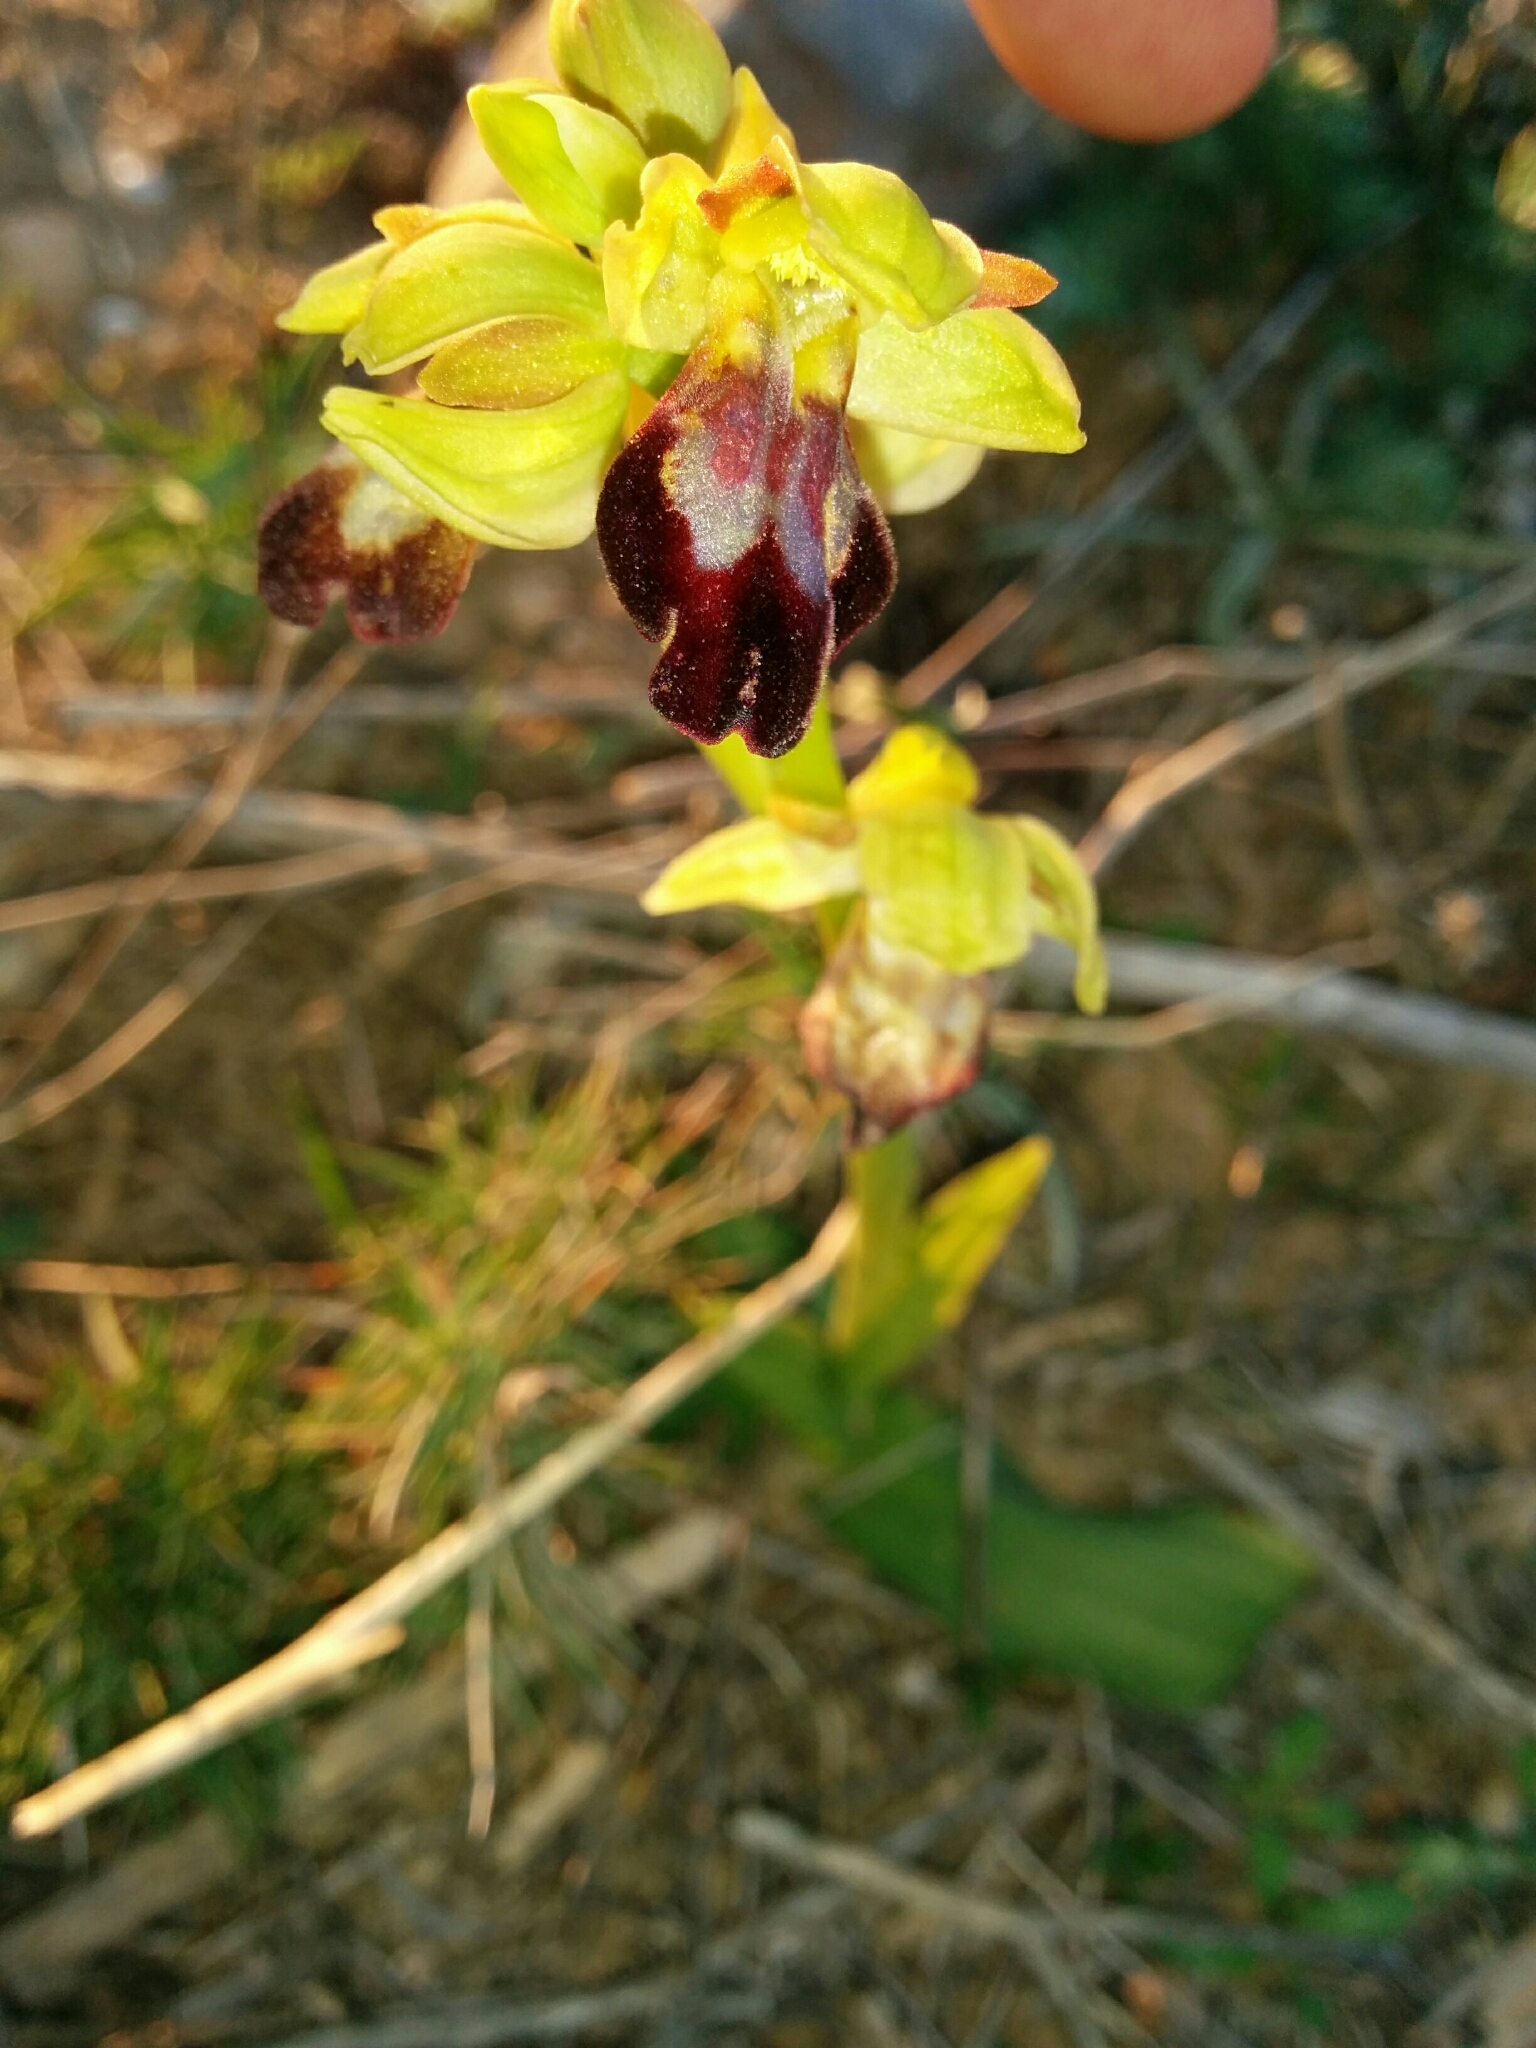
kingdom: Plantae
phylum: Tracheophyta
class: Liliopsida
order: Asparagales
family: Orchidaceae
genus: Ophrys
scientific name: Ophrys fusca
